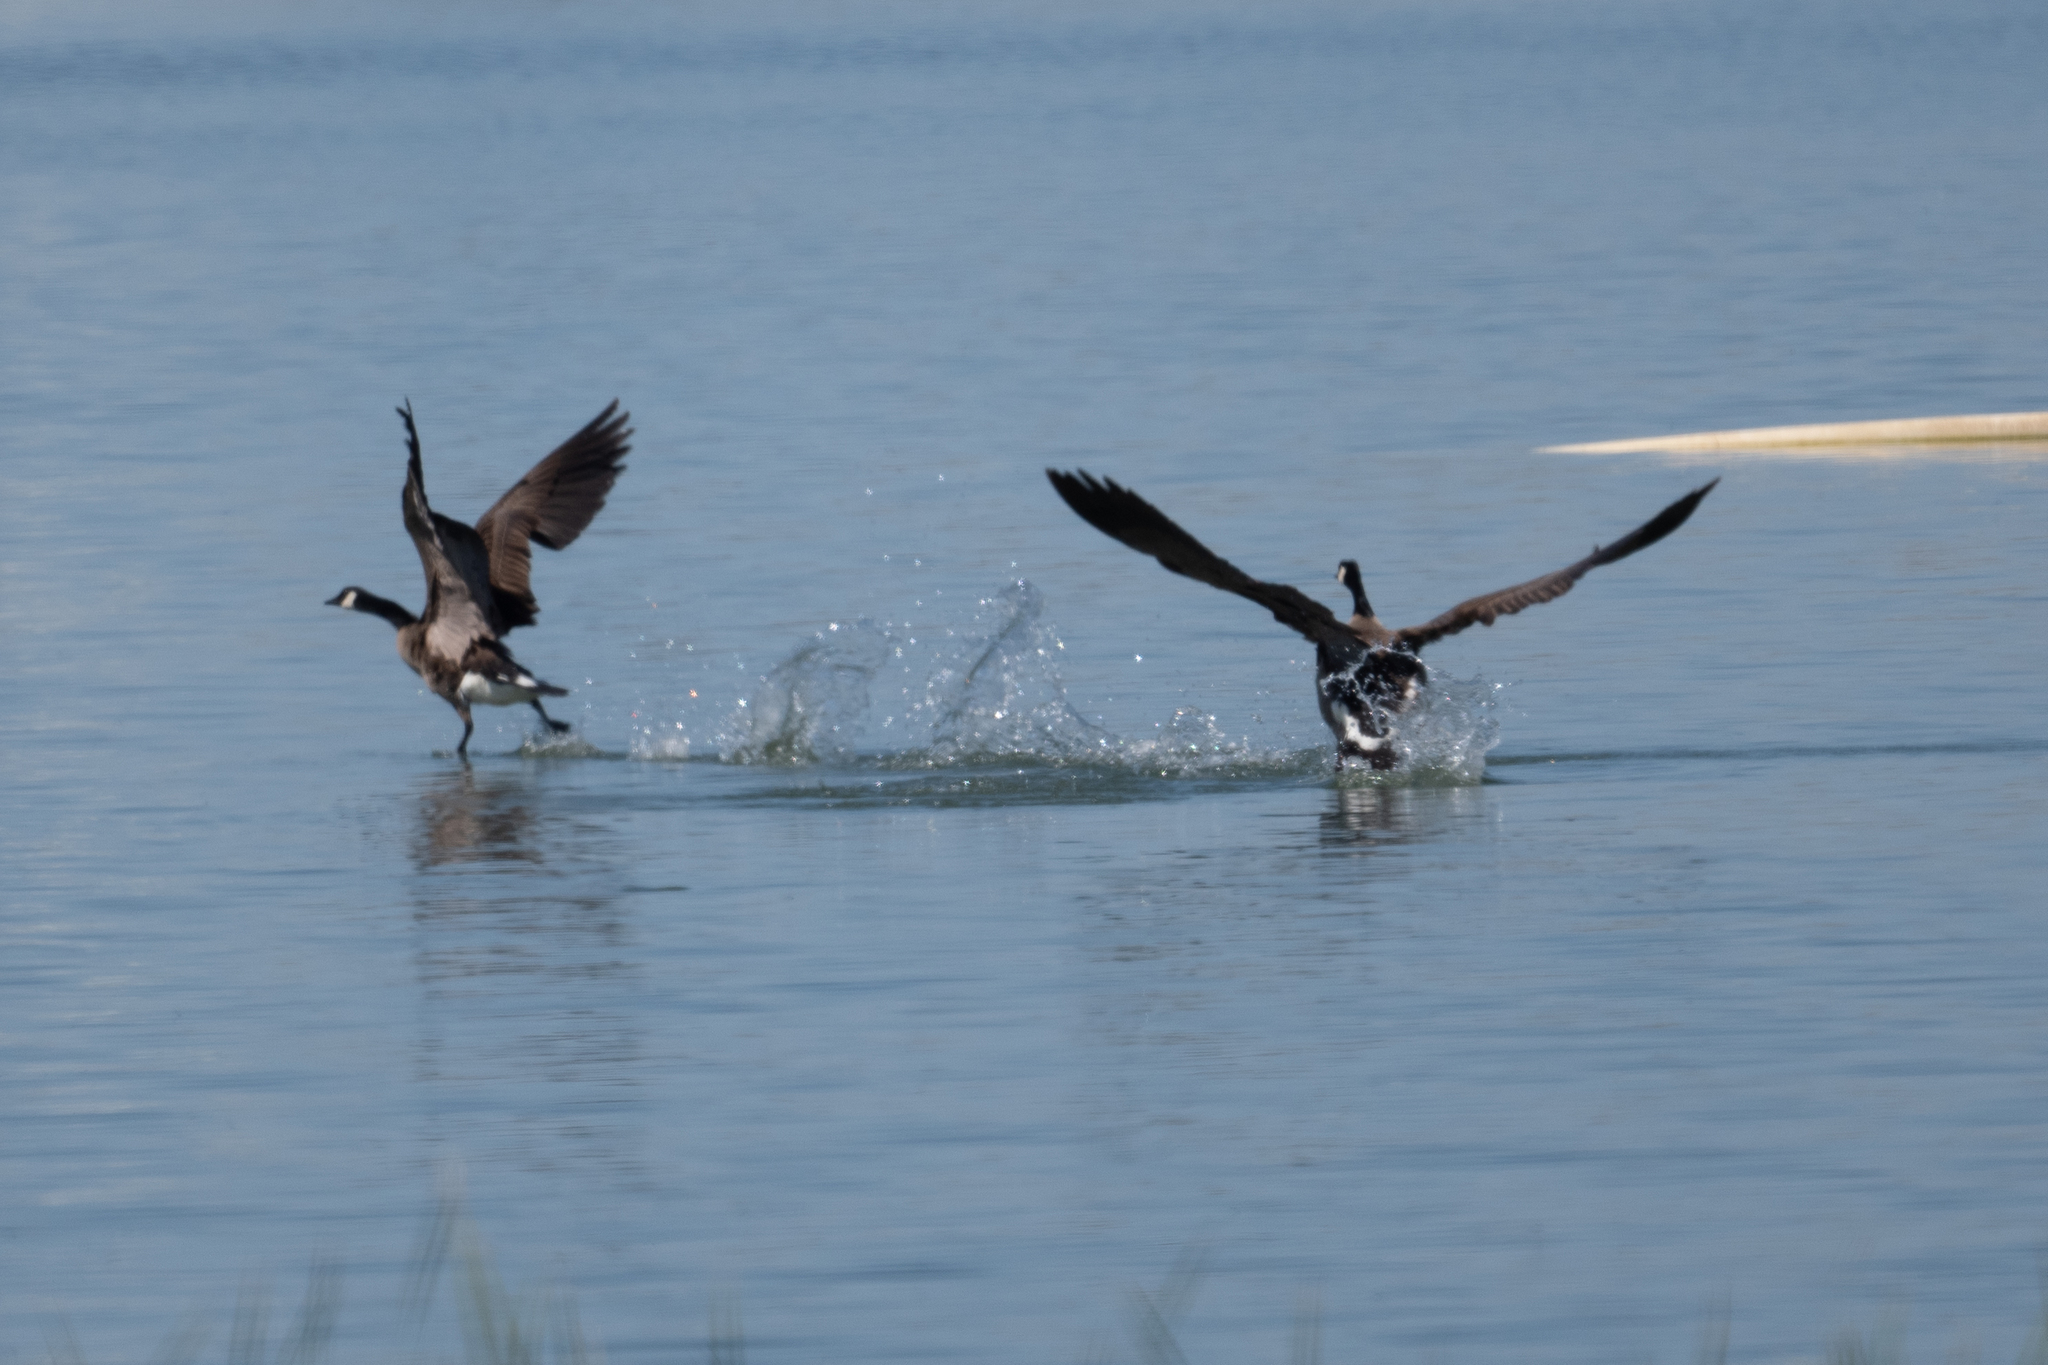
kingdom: Animalia
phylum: Chordata
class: Aves
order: Anseriformes
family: Anatidae
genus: Branta
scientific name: Branta canadensis
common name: Canada goose
